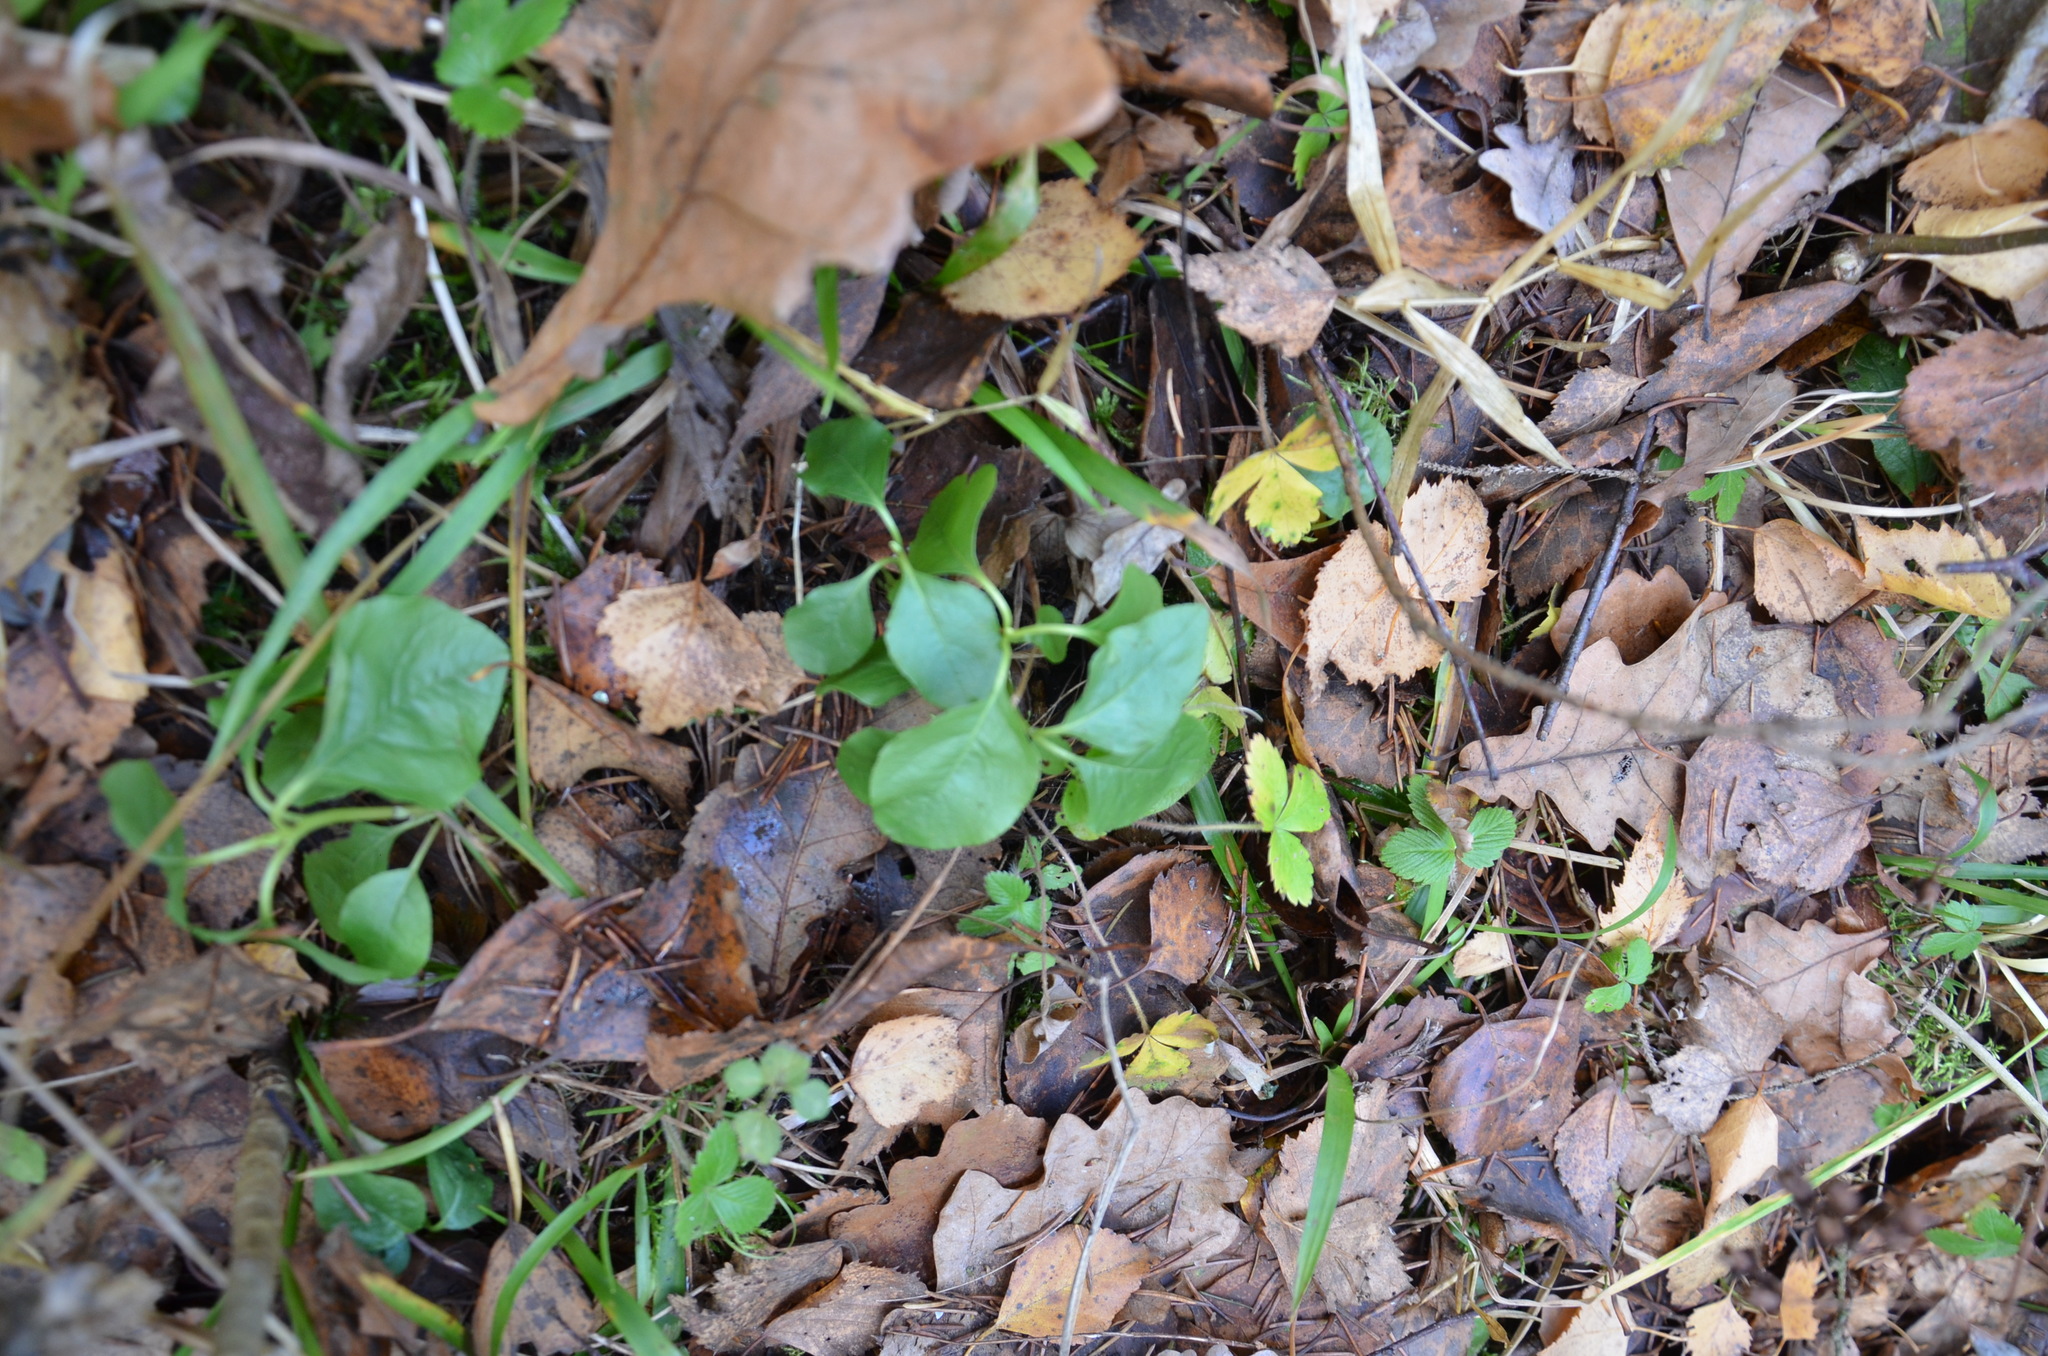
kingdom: Plantae
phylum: Tracheophyta
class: Magnoliopsida
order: Ericales
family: Ericaceae
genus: Orthilia
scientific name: Orthilia secunda
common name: One-sided orthilia
